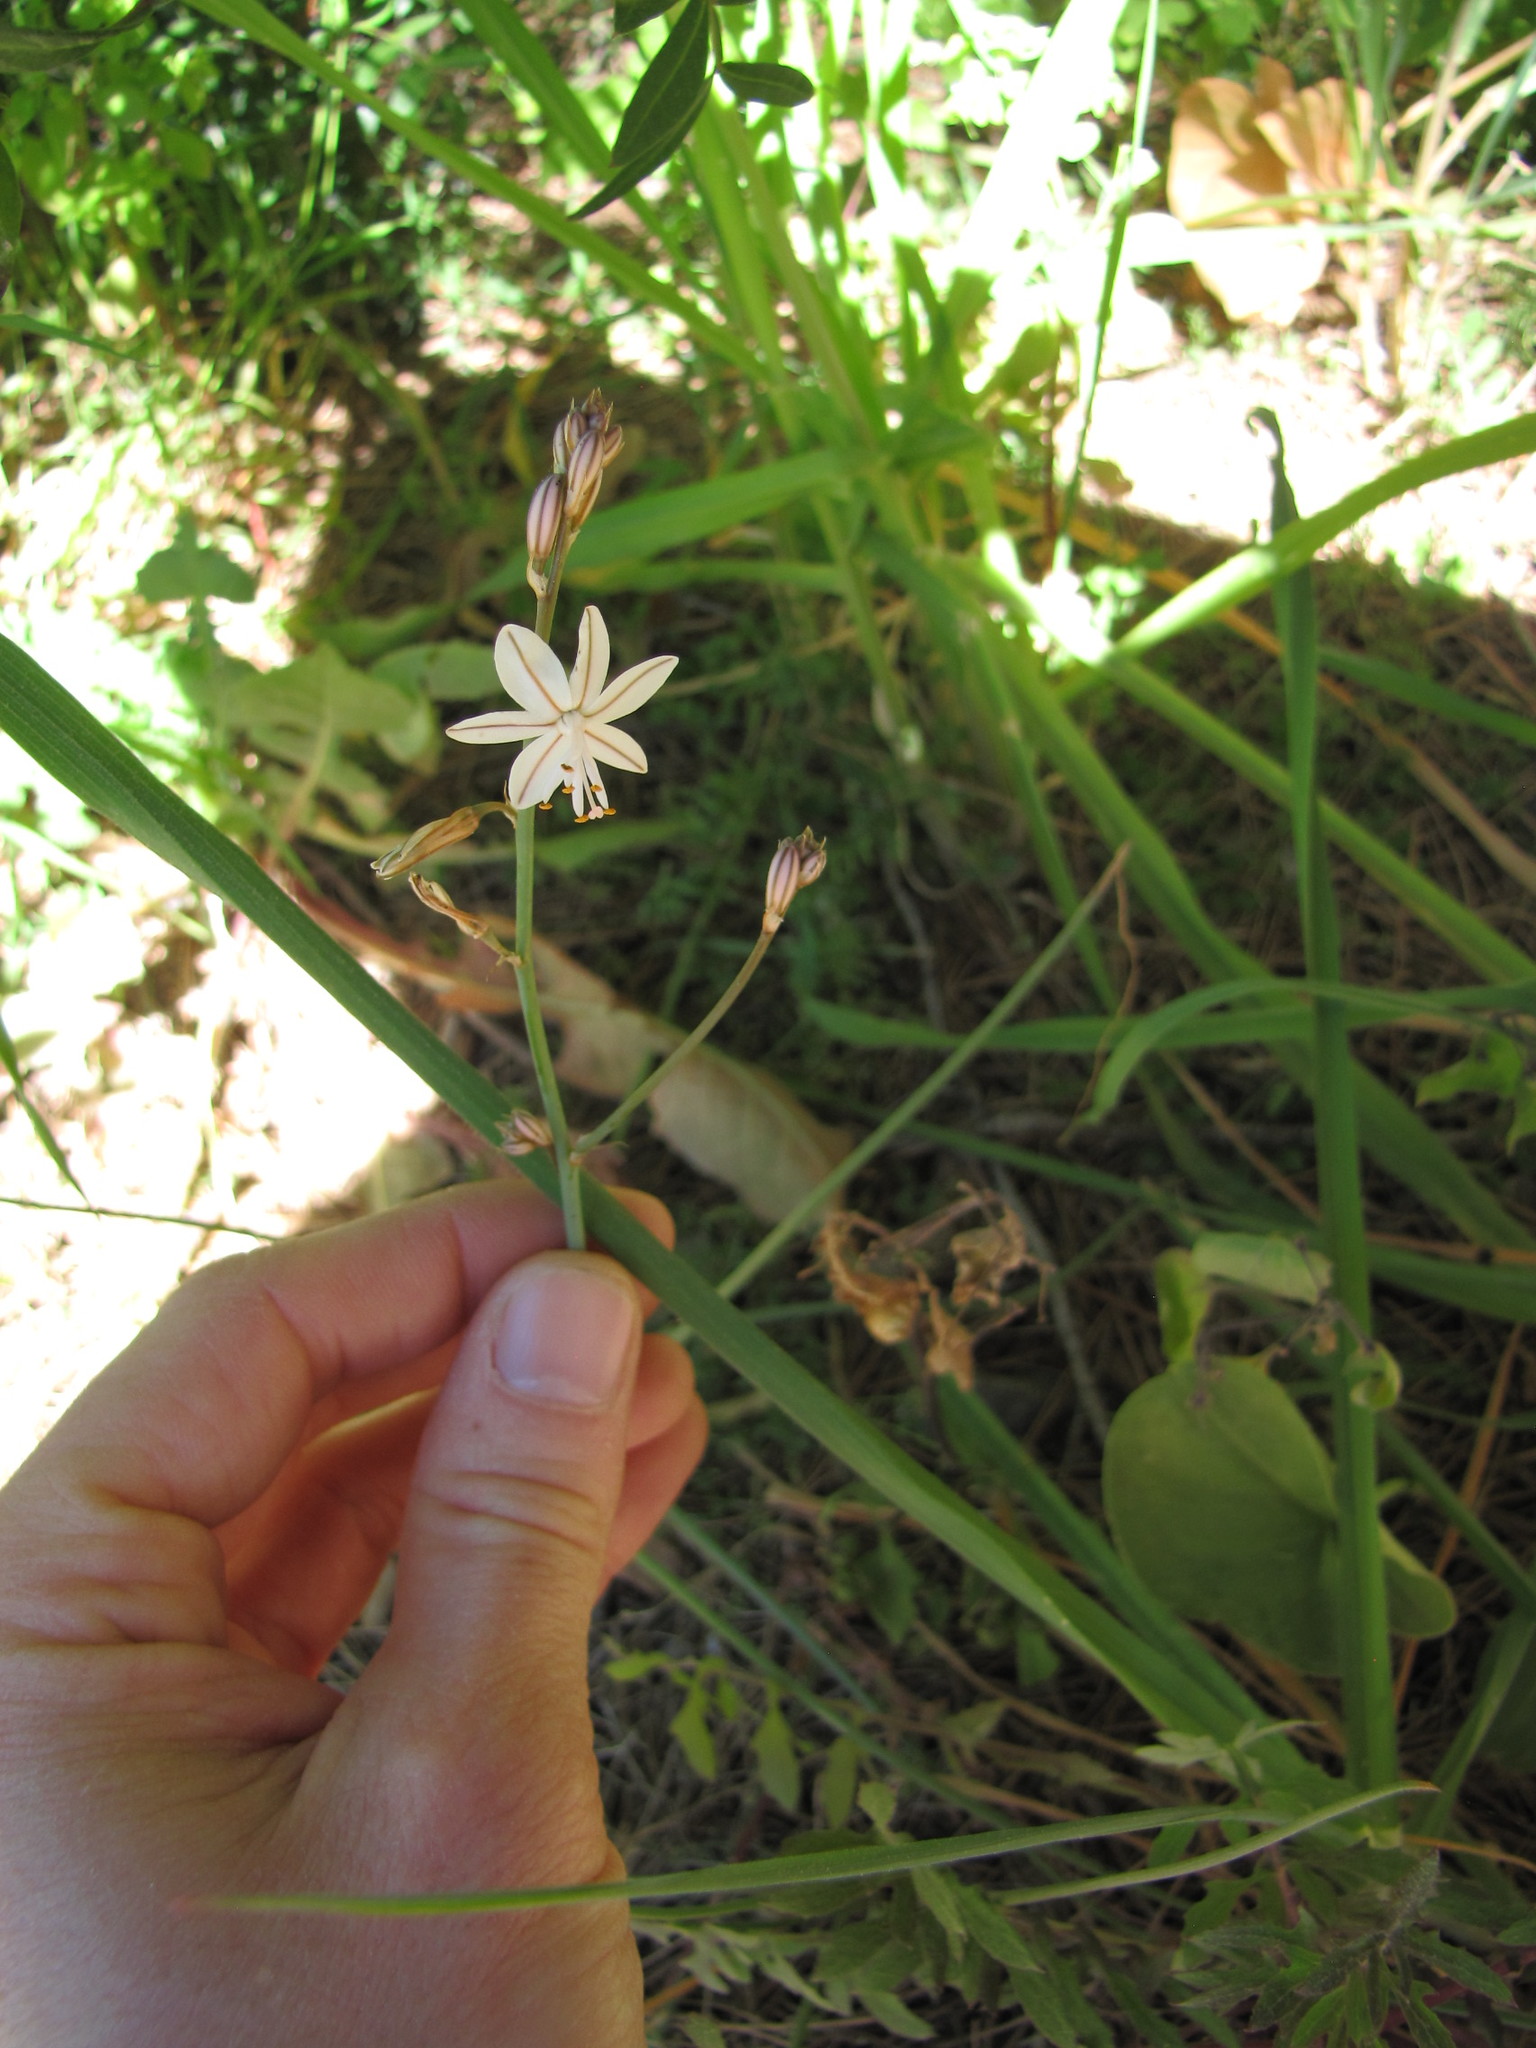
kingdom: Plantae
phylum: Tracheophyta
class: Liliopsida
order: Asparagales
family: Asphodelaceae
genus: Asphodelus
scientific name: Asphodelus fistulosus
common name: Onionweed
